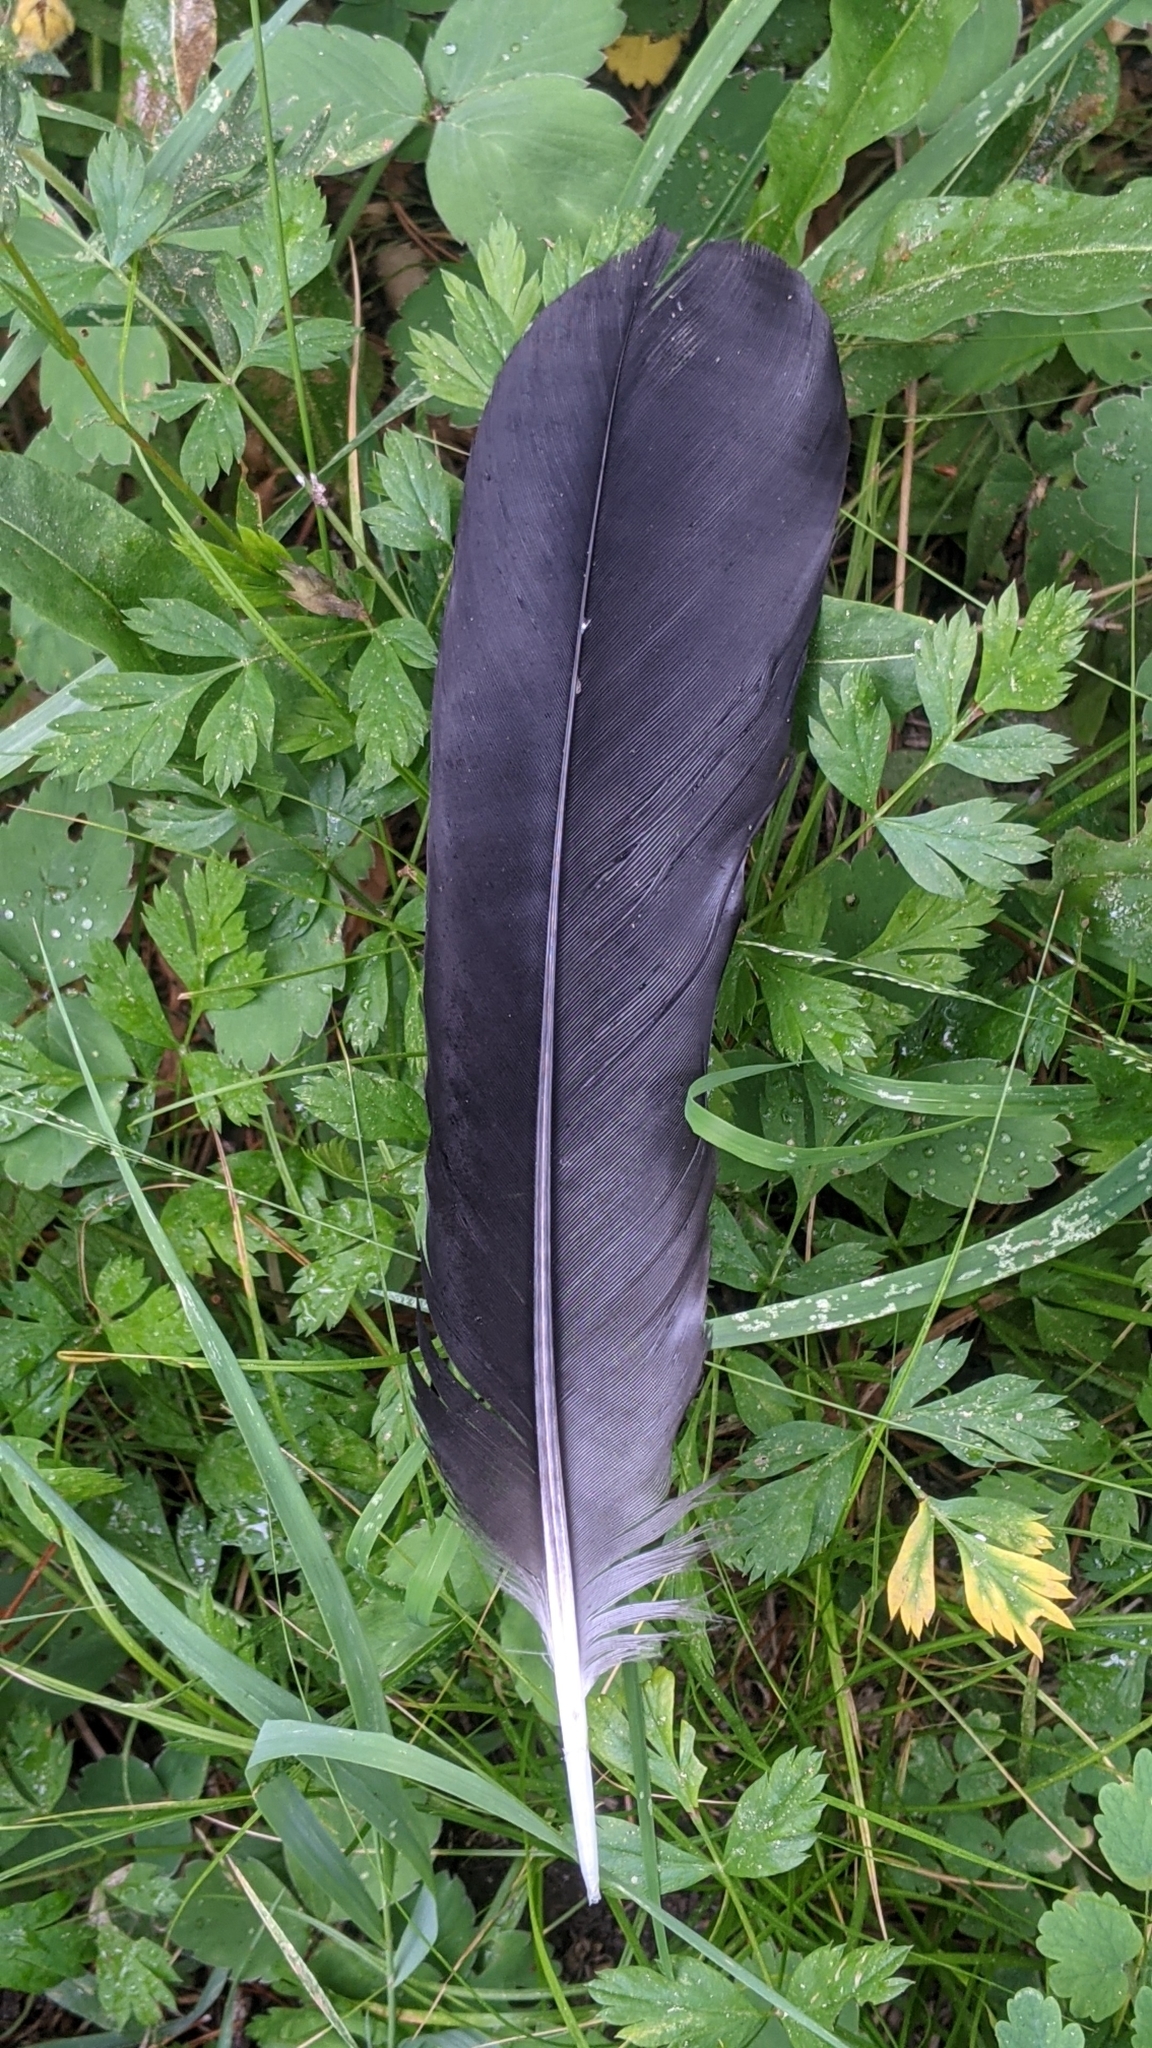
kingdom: Animalia
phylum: Chordata
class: Aves
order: Passeriformes
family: Corvidae
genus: Corvus
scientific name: Corvus corax
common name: Common raven
